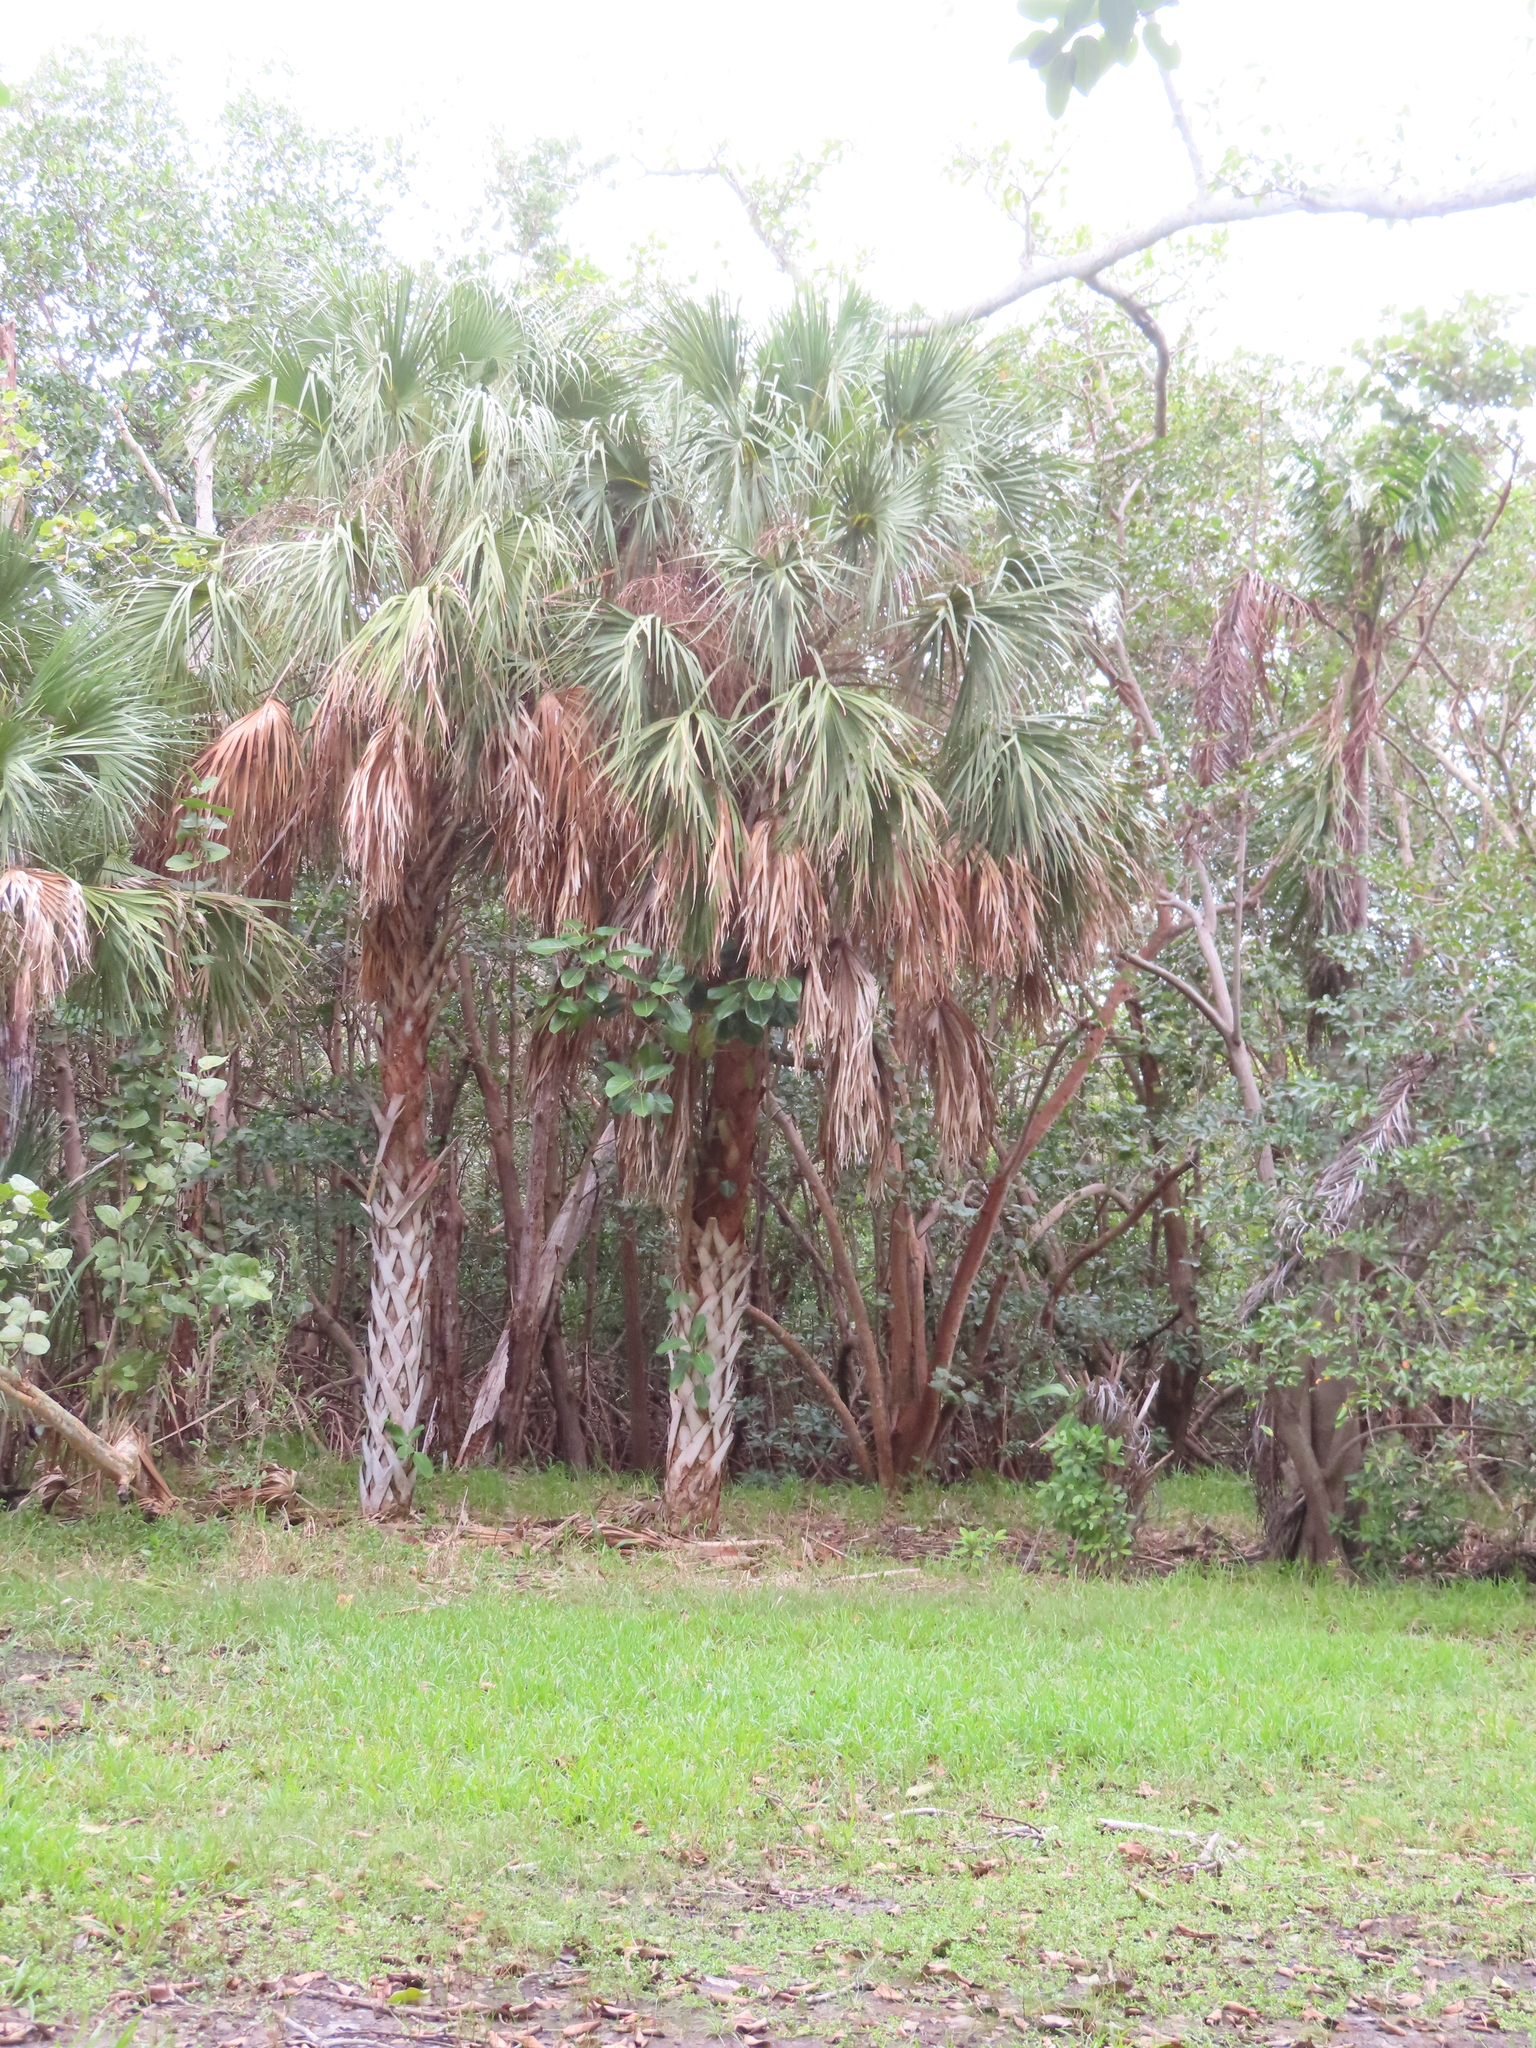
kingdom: Plantae
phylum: Tracheophyta
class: Liliopsida
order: Arecales
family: Arecaceae
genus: Sabal
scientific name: Sabal palmetto
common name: Blue palmetto
